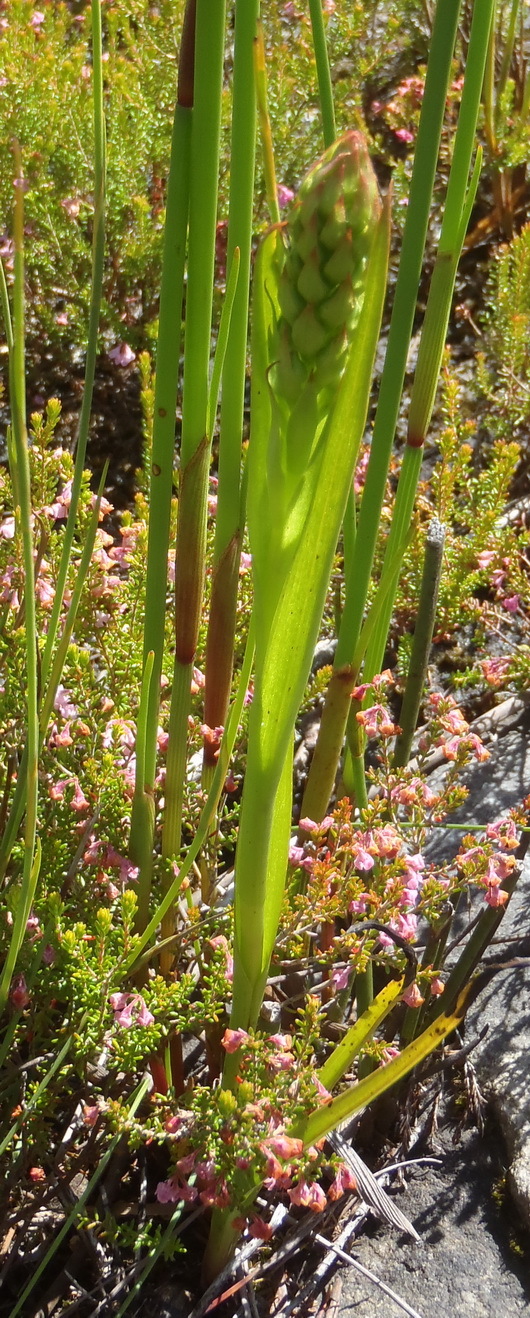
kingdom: Plantae
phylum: Tracheophyta
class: Liliopsida
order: Asparagales
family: Orchidaceae
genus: Evotella
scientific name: Evotella carnosa
